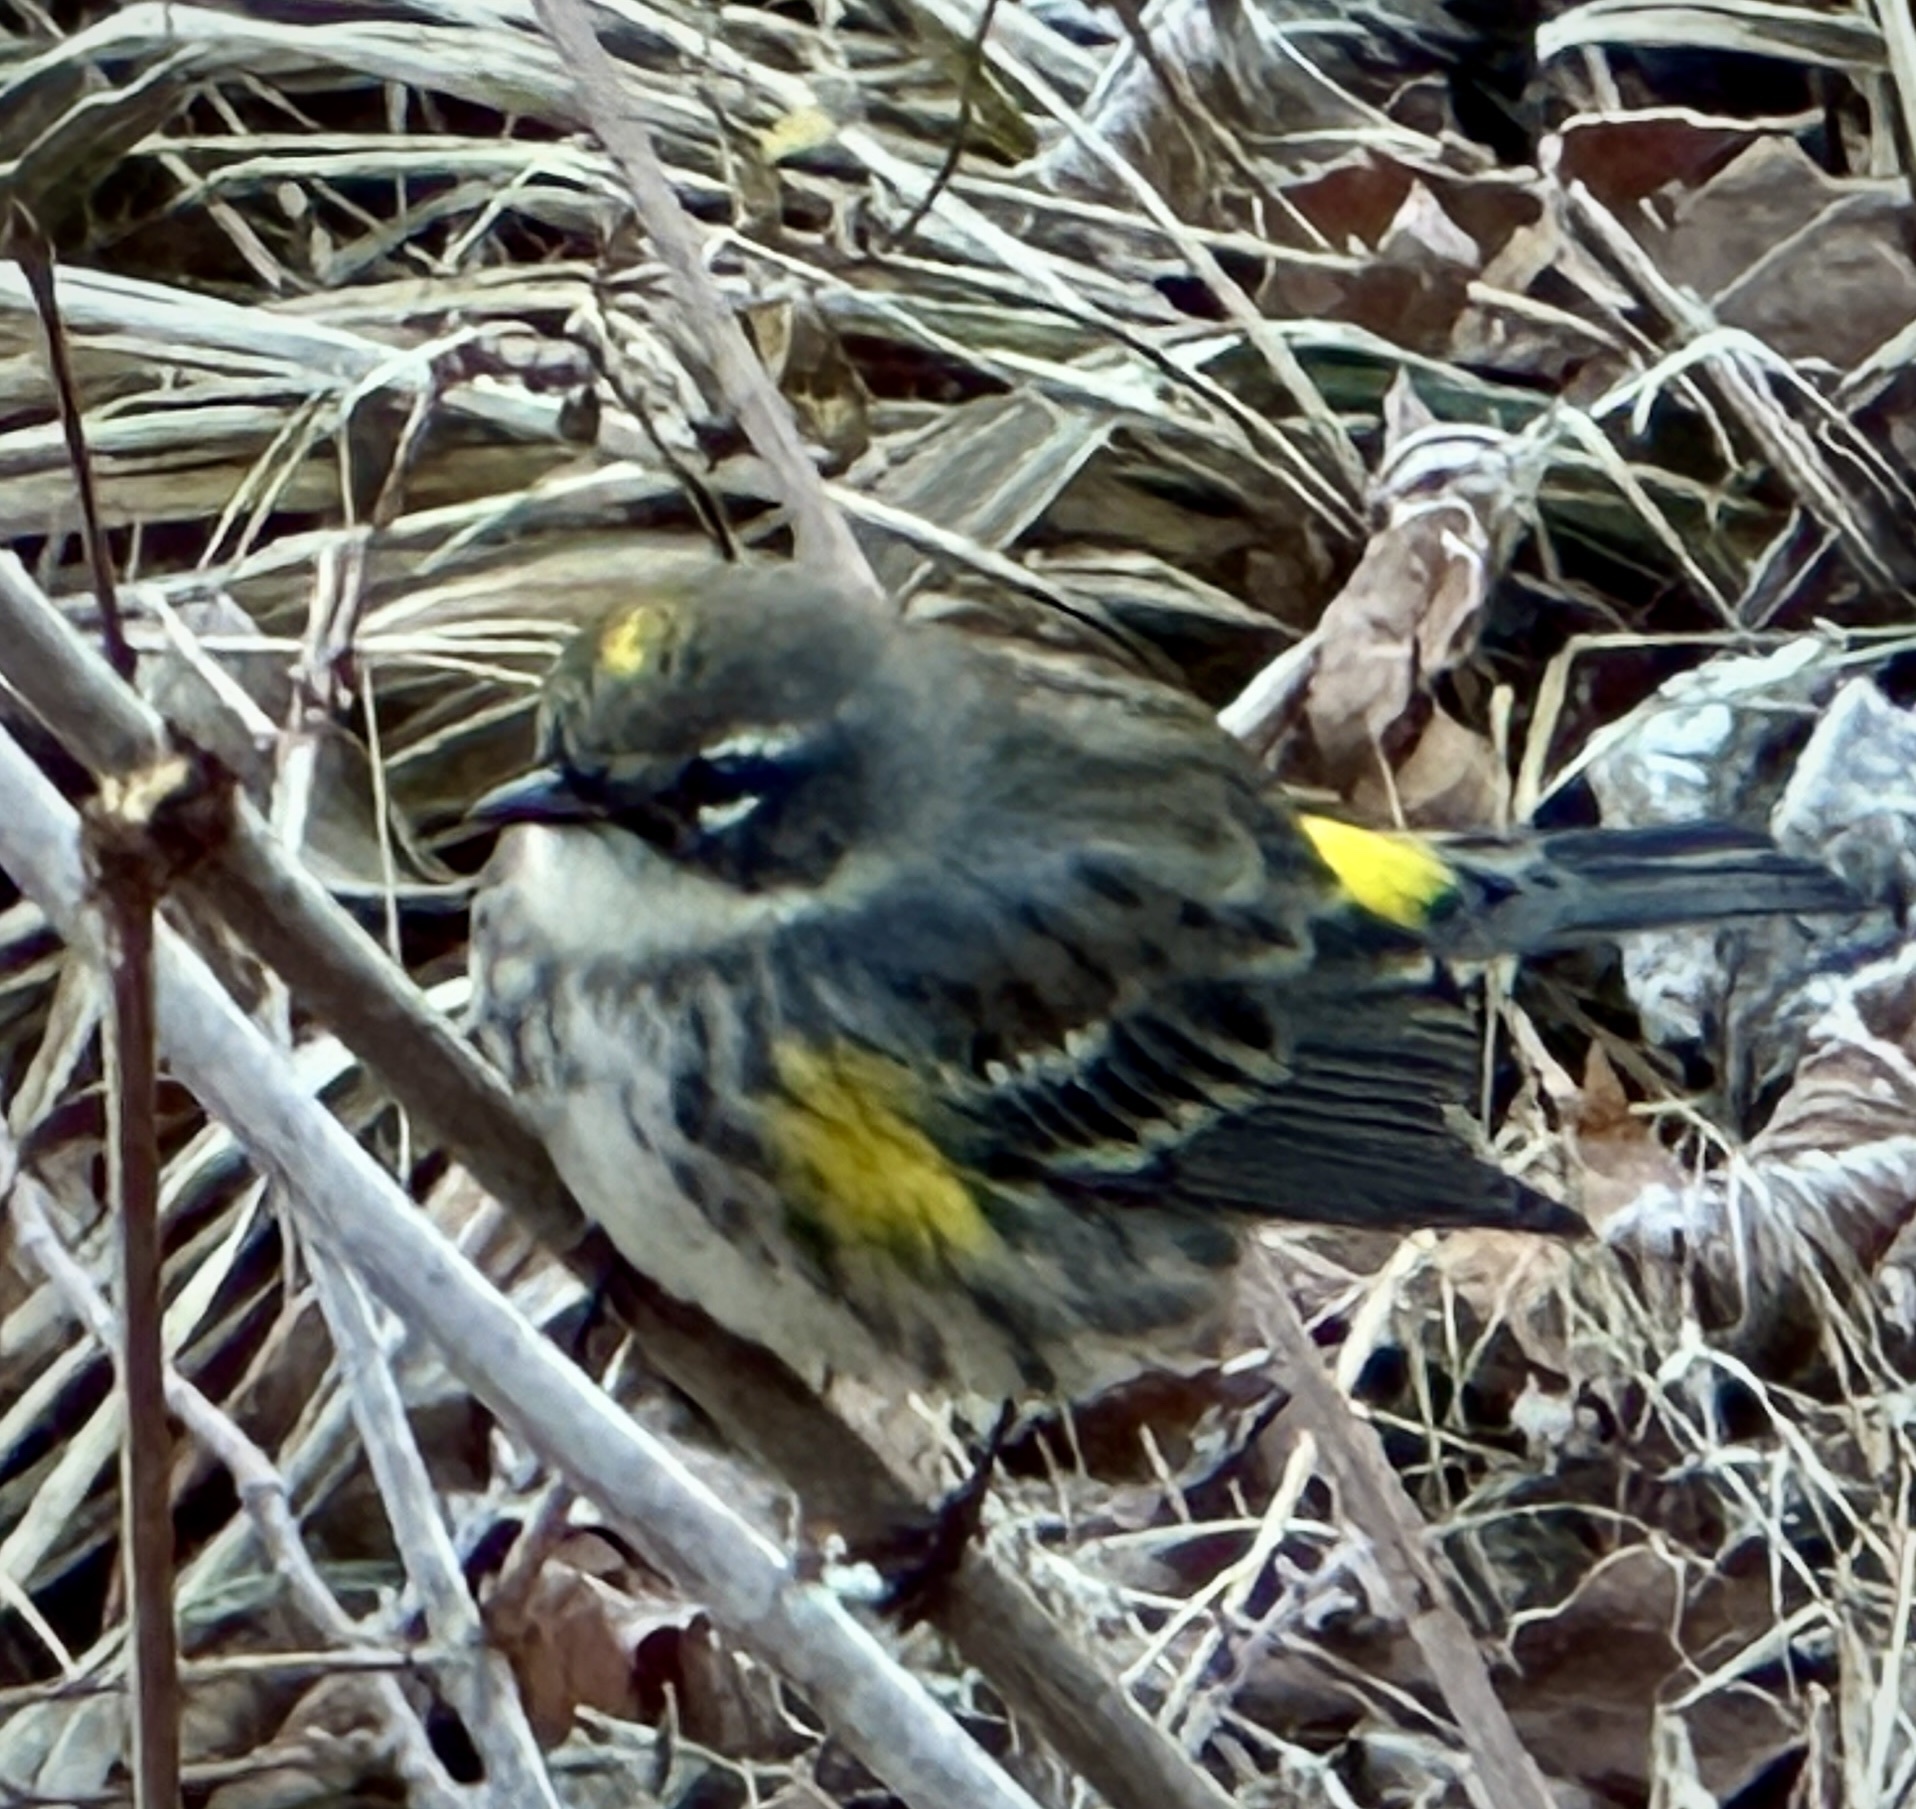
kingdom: Animalia
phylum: Chordata
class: Aves
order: Passeriformes
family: Parulidae
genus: Setophaga
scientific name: Setophaga coronata
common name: Myrtle warbler
